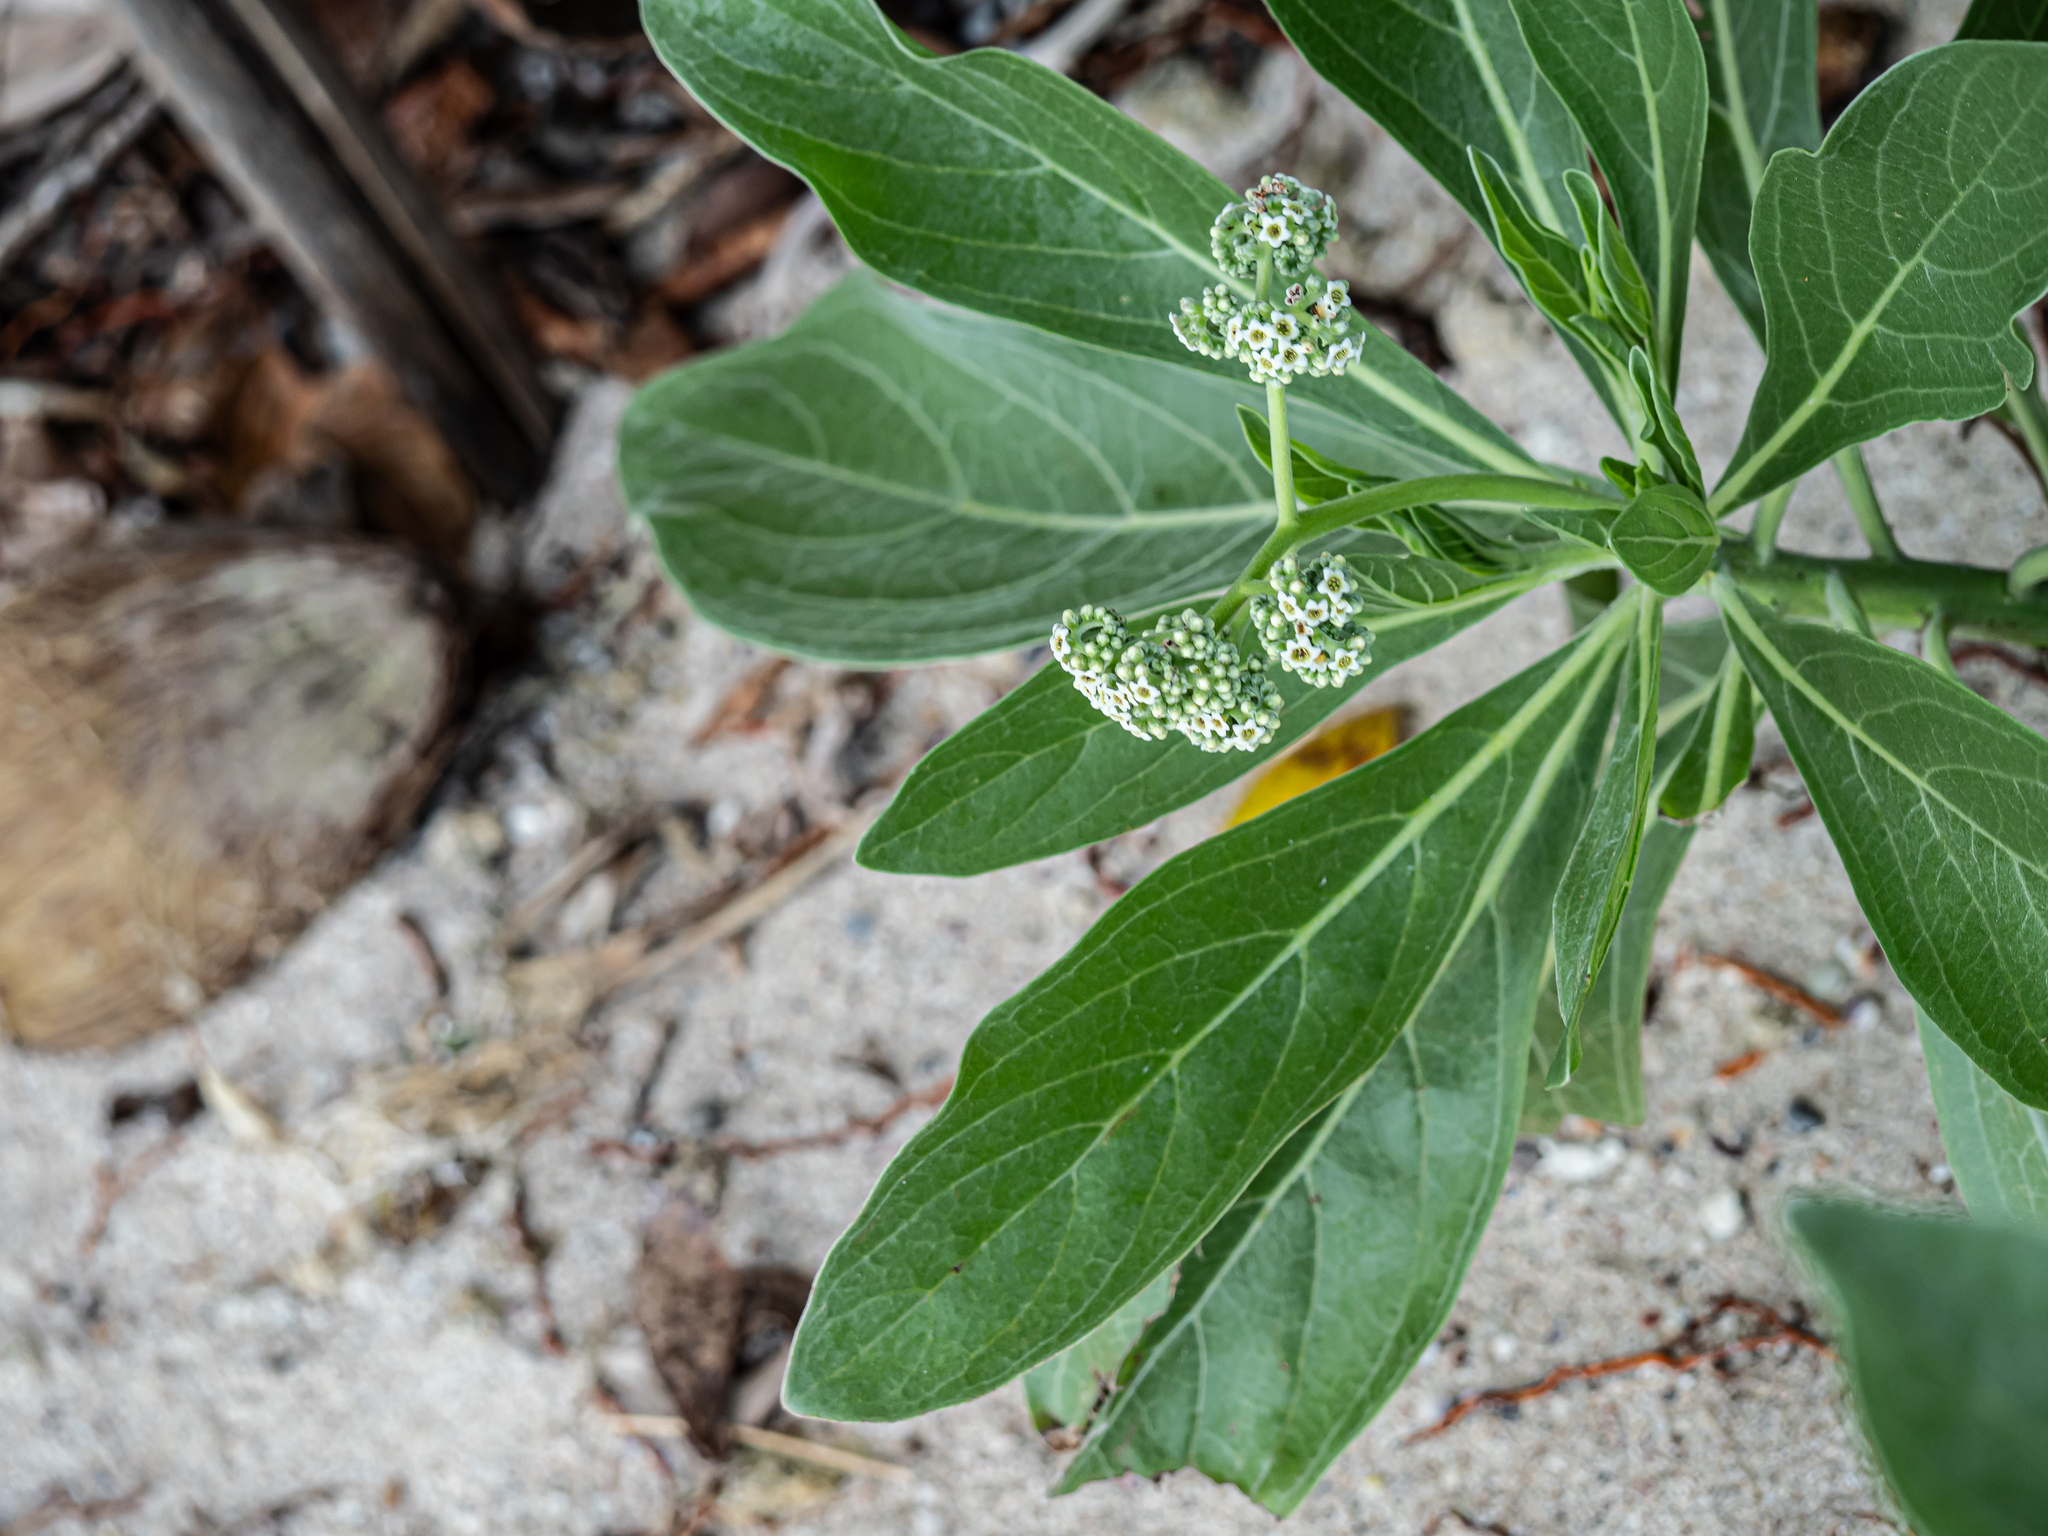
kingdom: Plantae
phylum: Tracheophyta
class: Magnoliopsida
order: Boraginales
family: Heliotropiaceae
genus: Heliotropium
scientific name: Heliotropium velutinum
